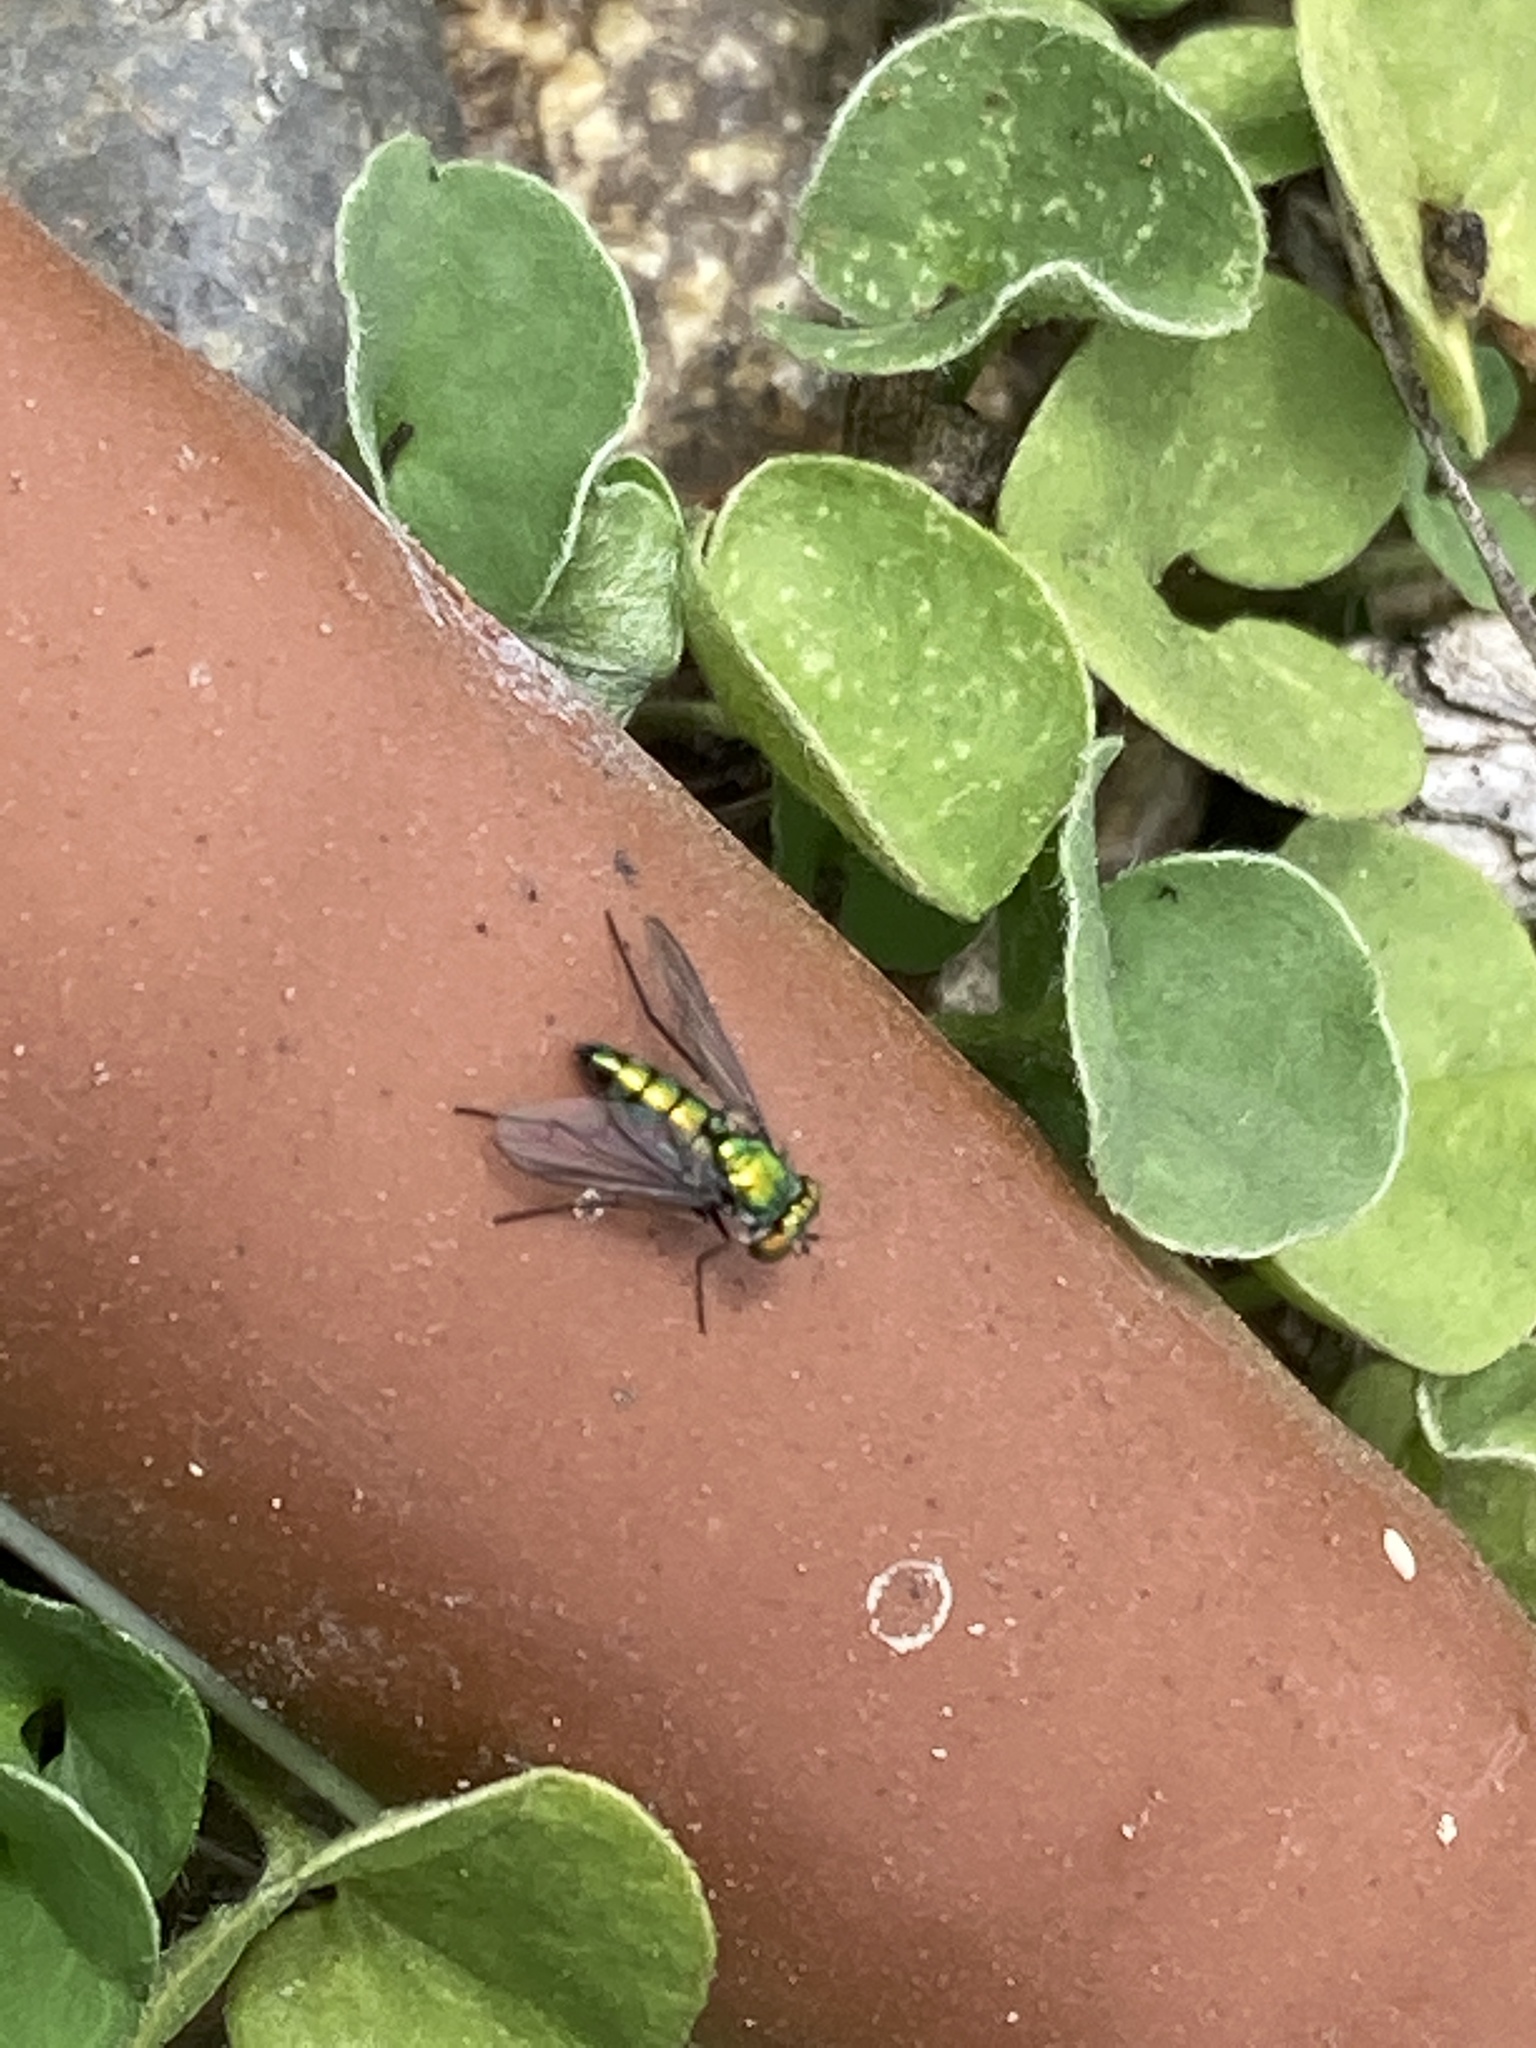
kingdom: Animalia
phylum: Arthropoda
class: Insecta
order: Diptera
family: Dolichopodidae
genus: Condylostylus
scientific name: Condylostylus longicornis
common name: Long-legged fly
